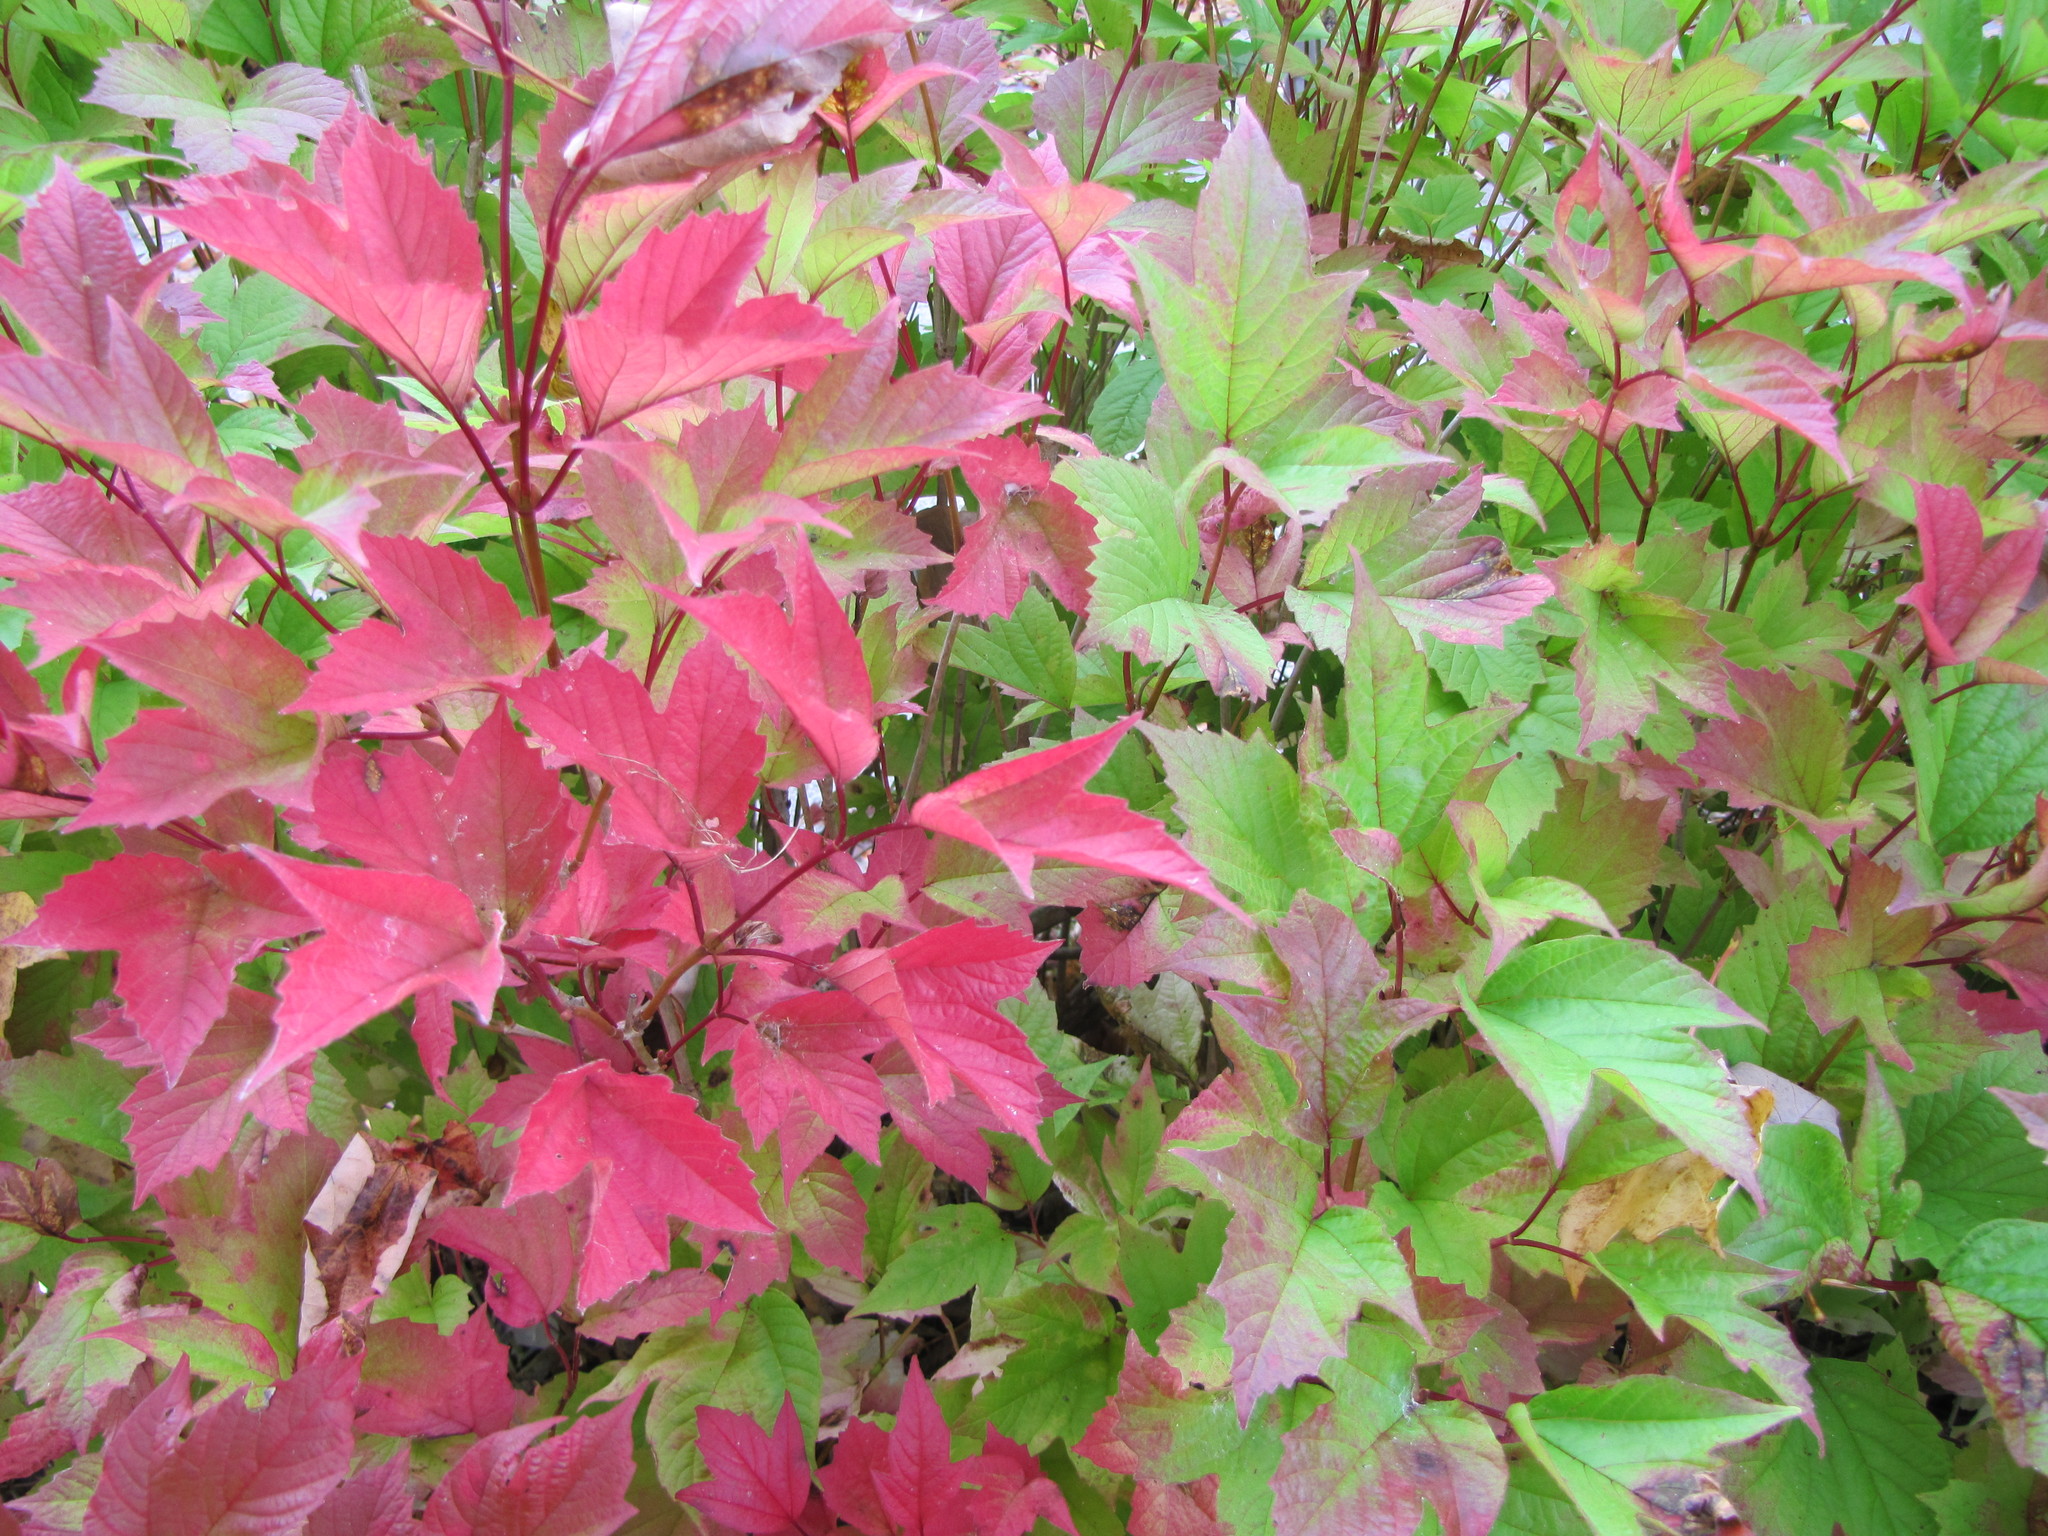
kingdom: Plantae
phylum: Tracheophyta
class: Magnoliopsida
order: Dipsacales
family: Viburnaceae
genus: Viburnum
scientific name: Viburnum trilobum
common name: American cranberrybush
